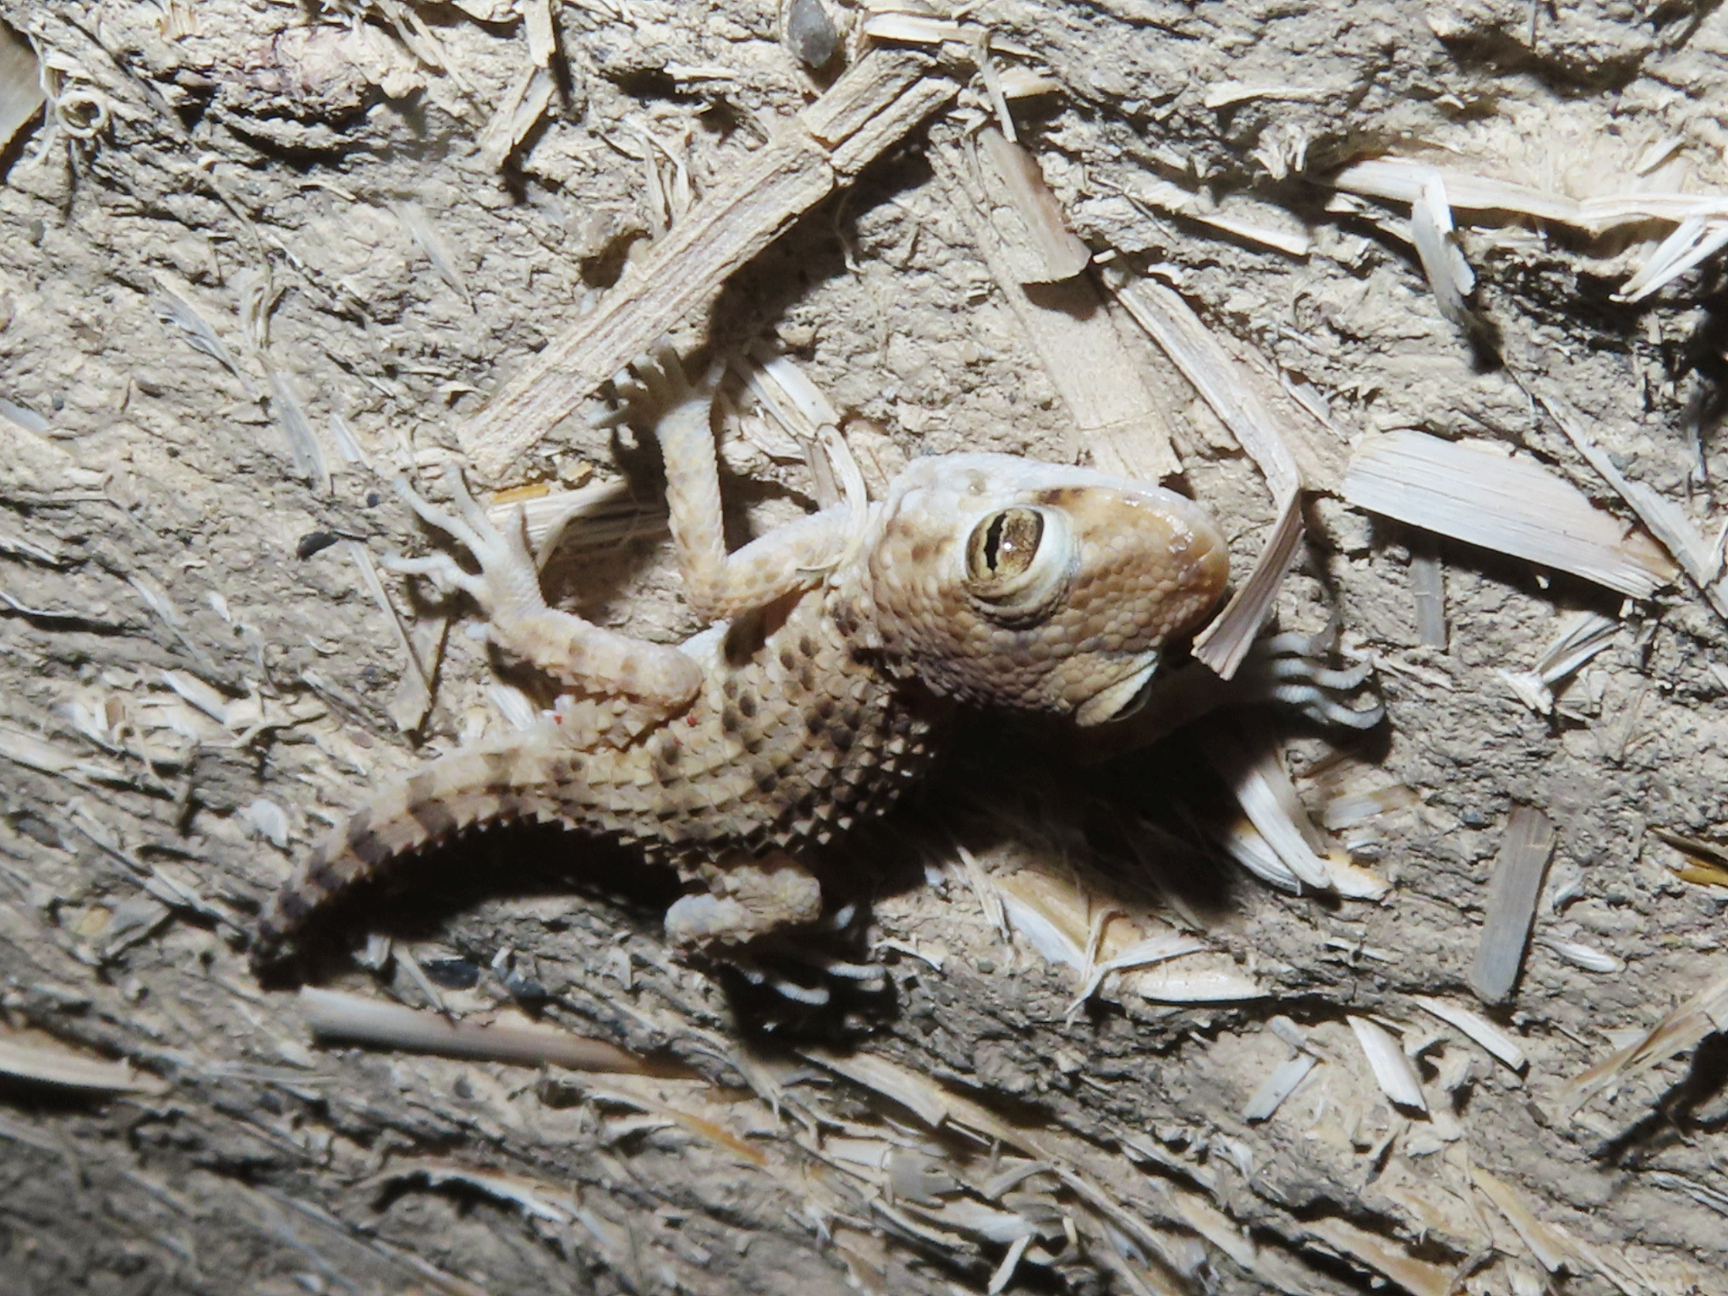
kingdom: Animalia
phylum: Chordata
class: Squamata
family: Gekkonidae
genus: Tenuidactylus
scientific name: Tenuidactylus caspius
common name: Caspian bent-toed gecko
